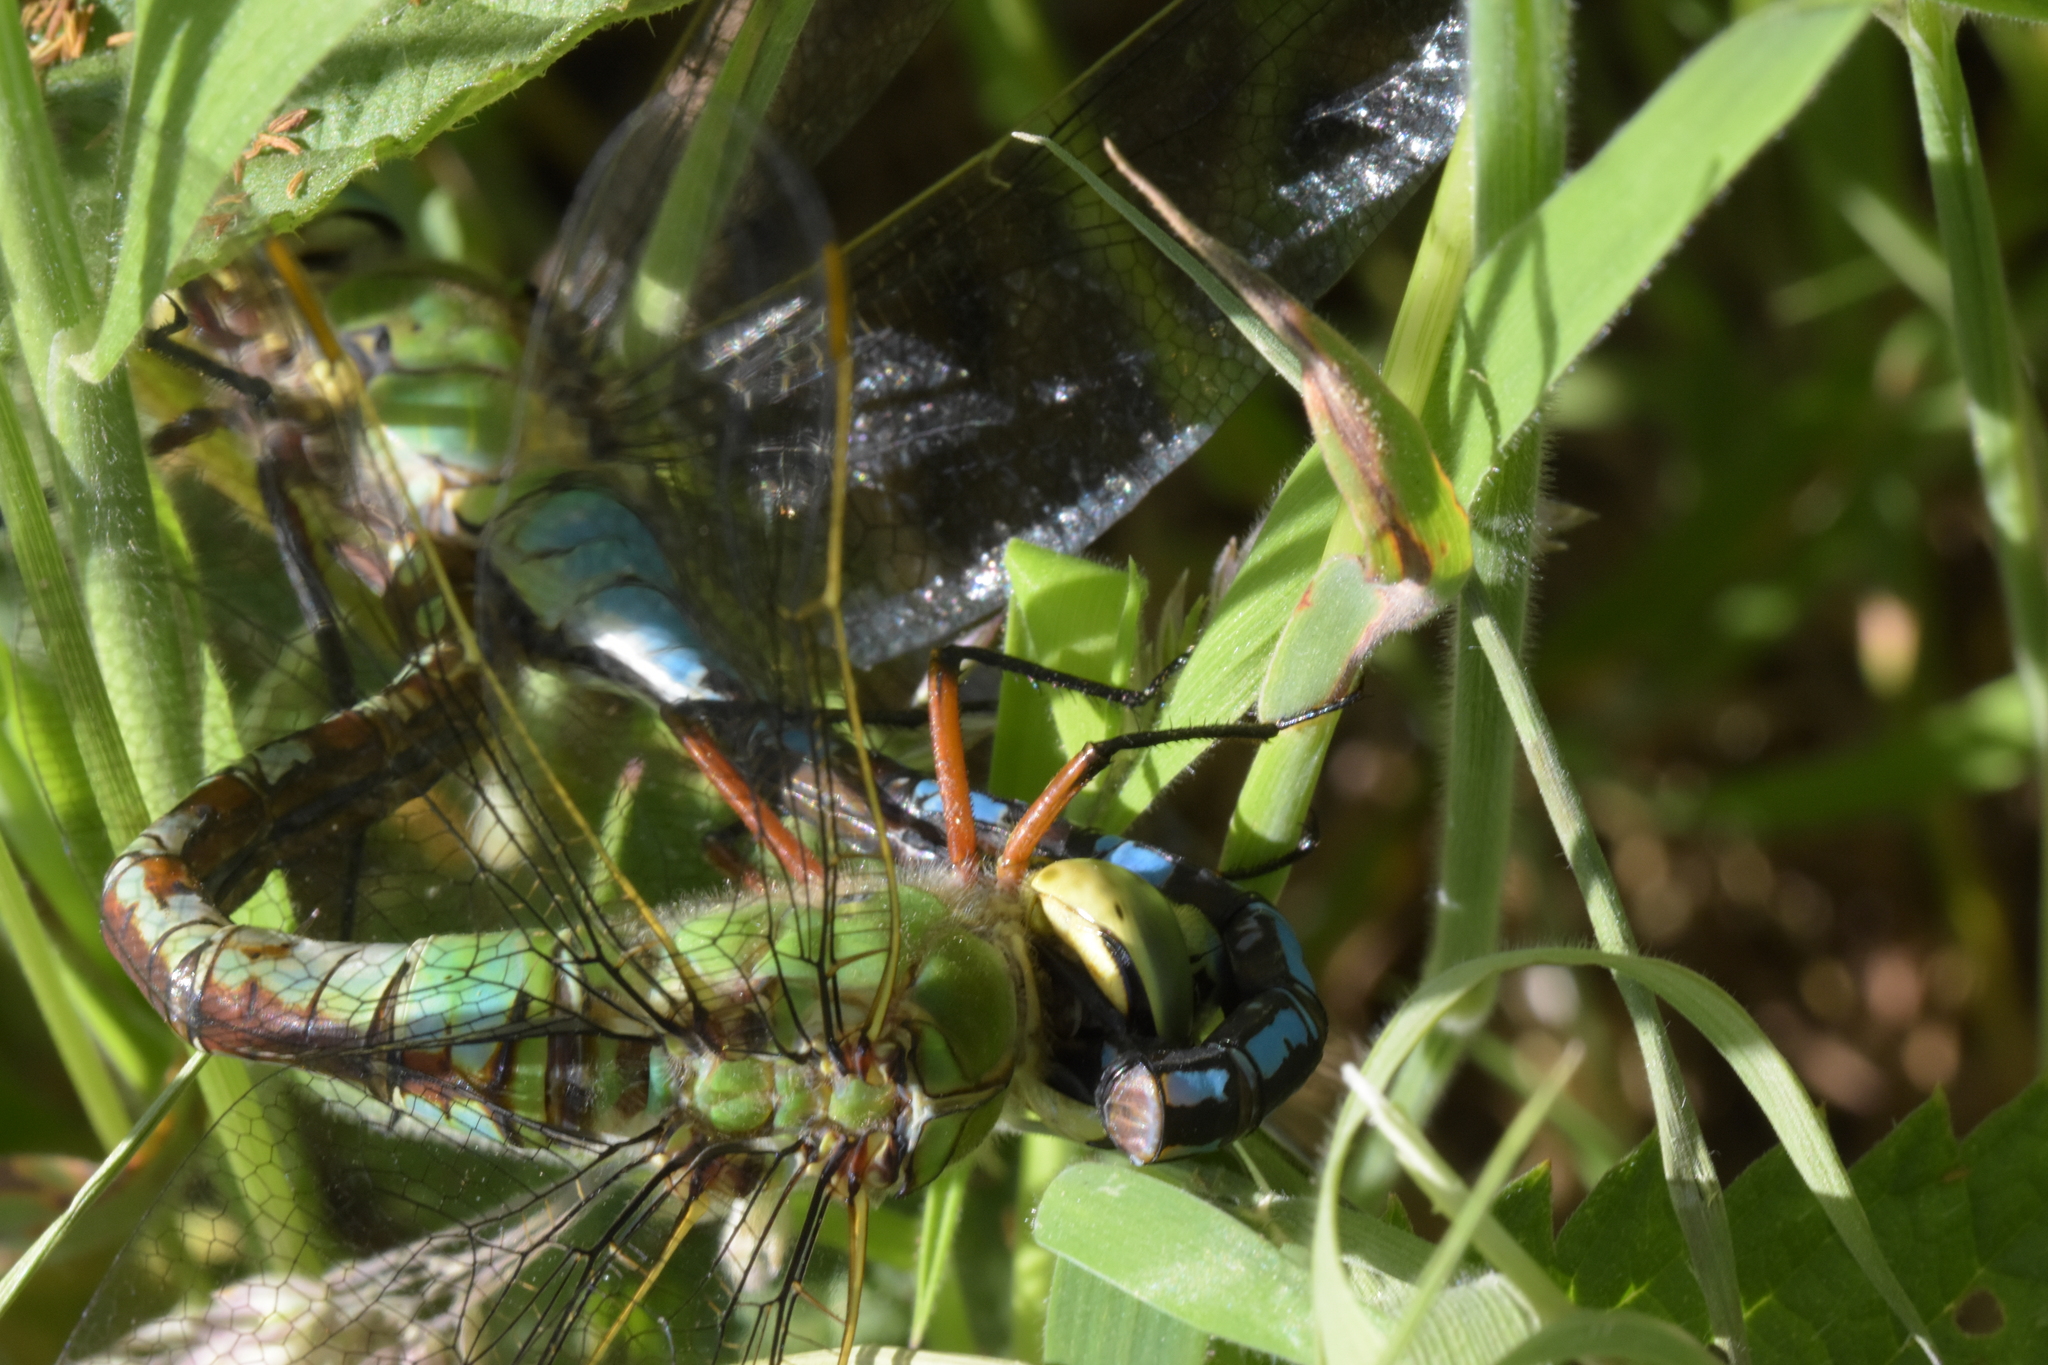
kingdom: Animalia
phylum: Arthropoda
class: Insecta
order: Odonata
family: Aeshnidae
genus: Anax
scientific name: Anax imperator
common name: Emperor dragonfly
